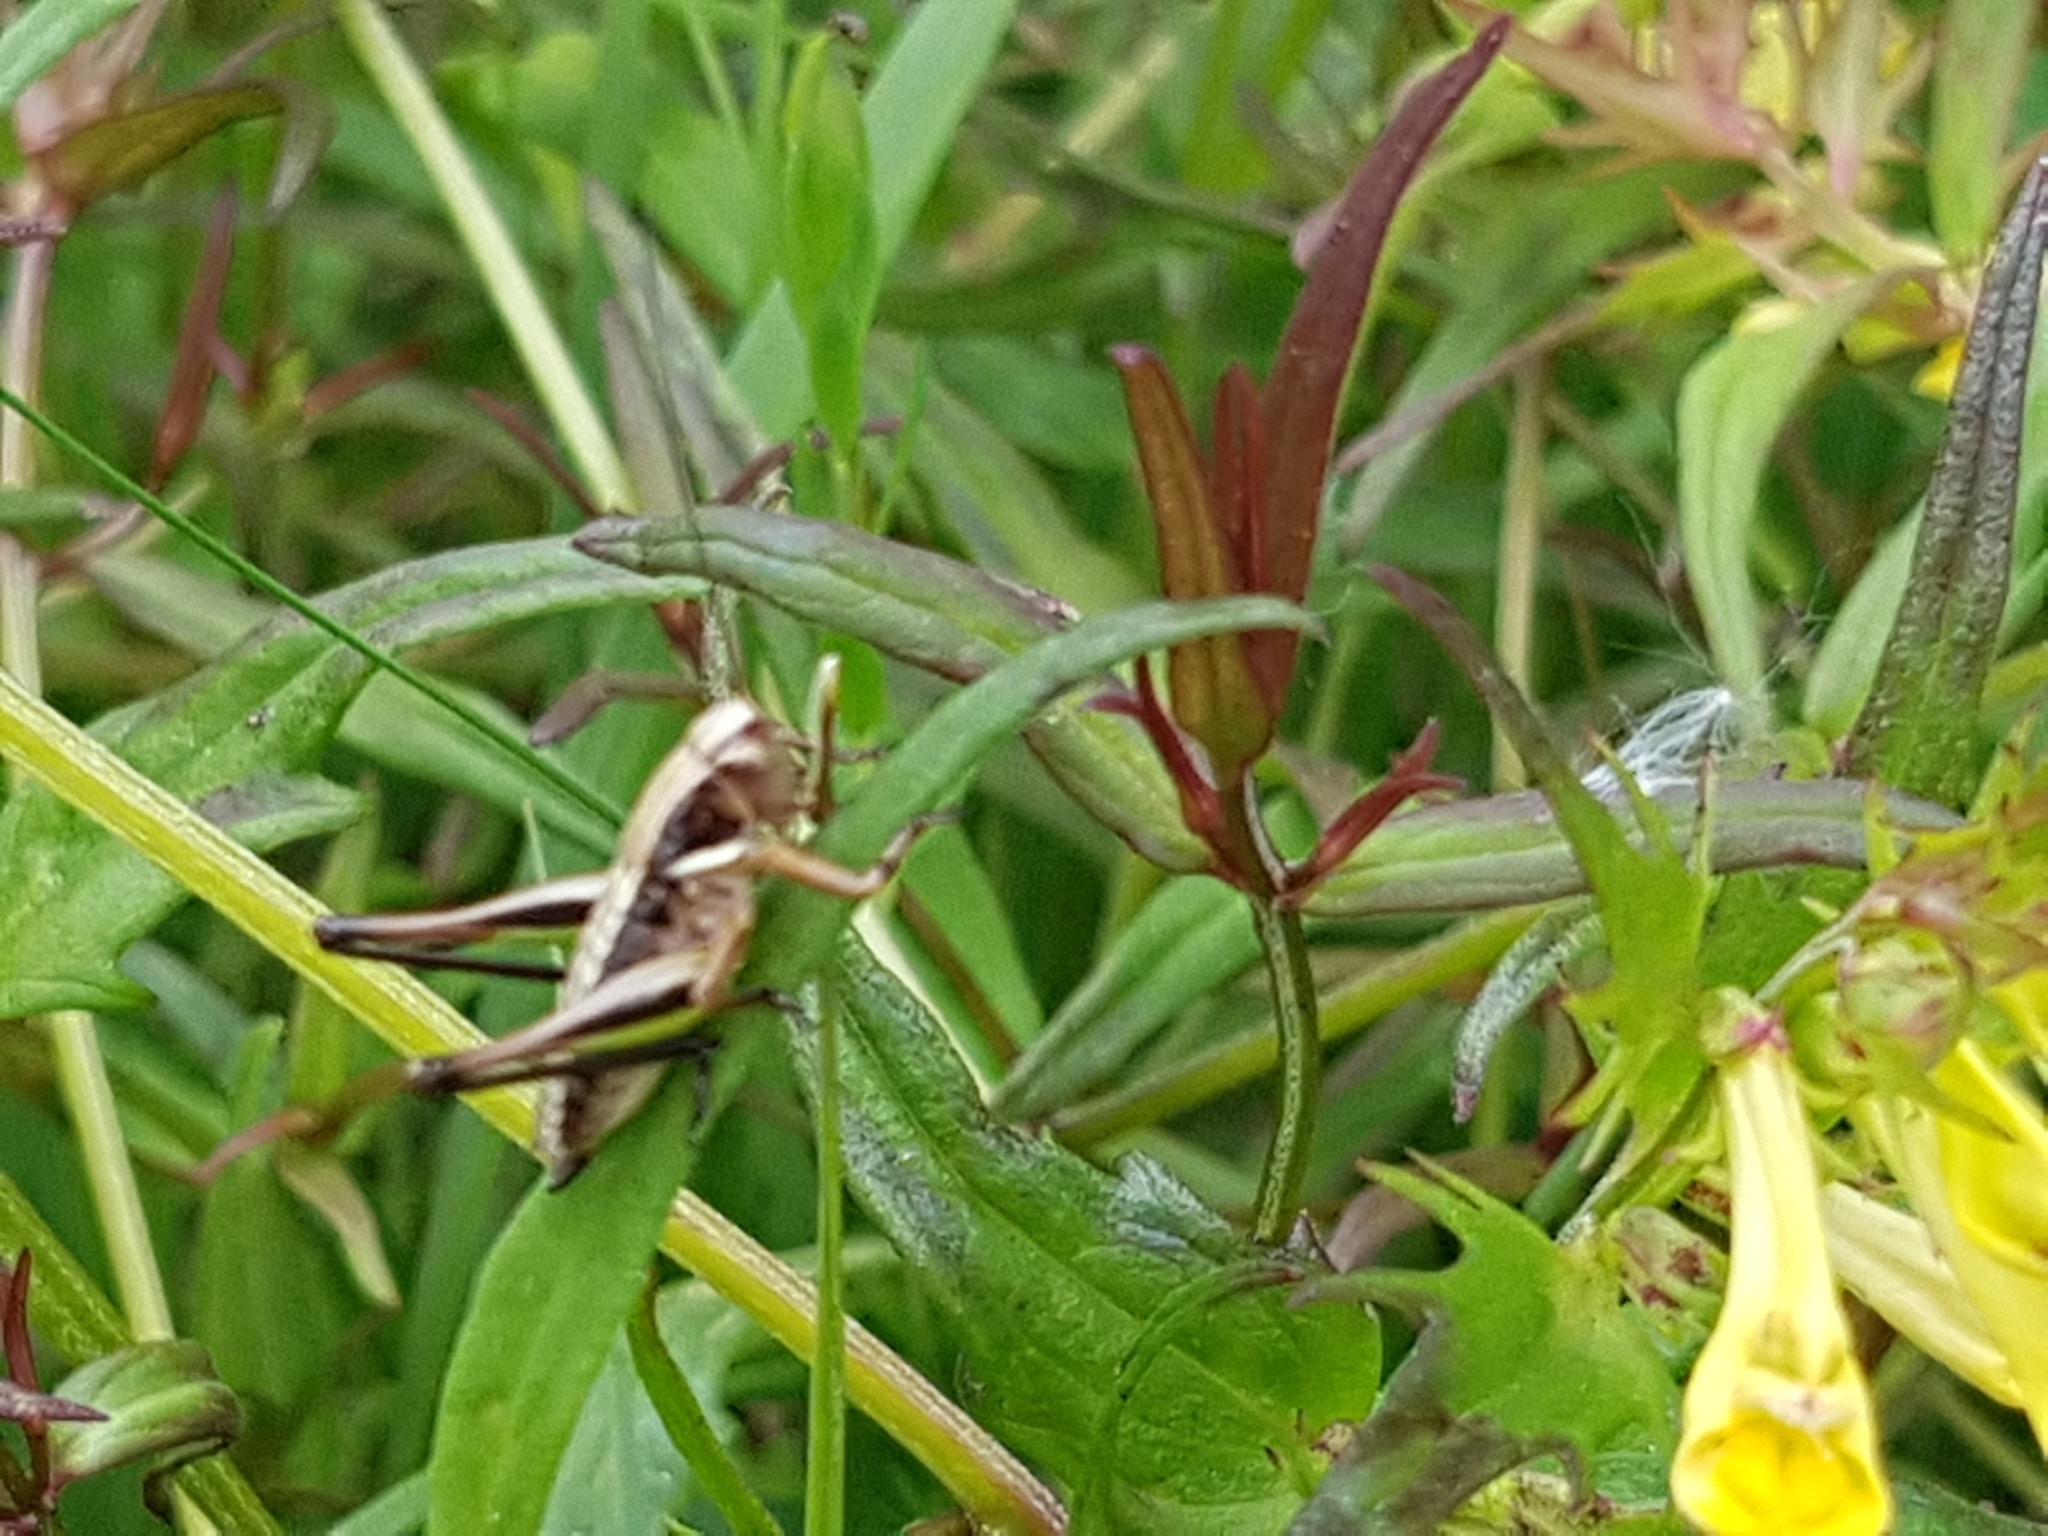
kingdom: Animalia
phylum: Arthropoda
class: Insecta
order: Orthoptera
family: Tettigoniidae
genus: Metrioptera
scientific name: Metrioptera brachyptera
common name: Bog bush-cricket
